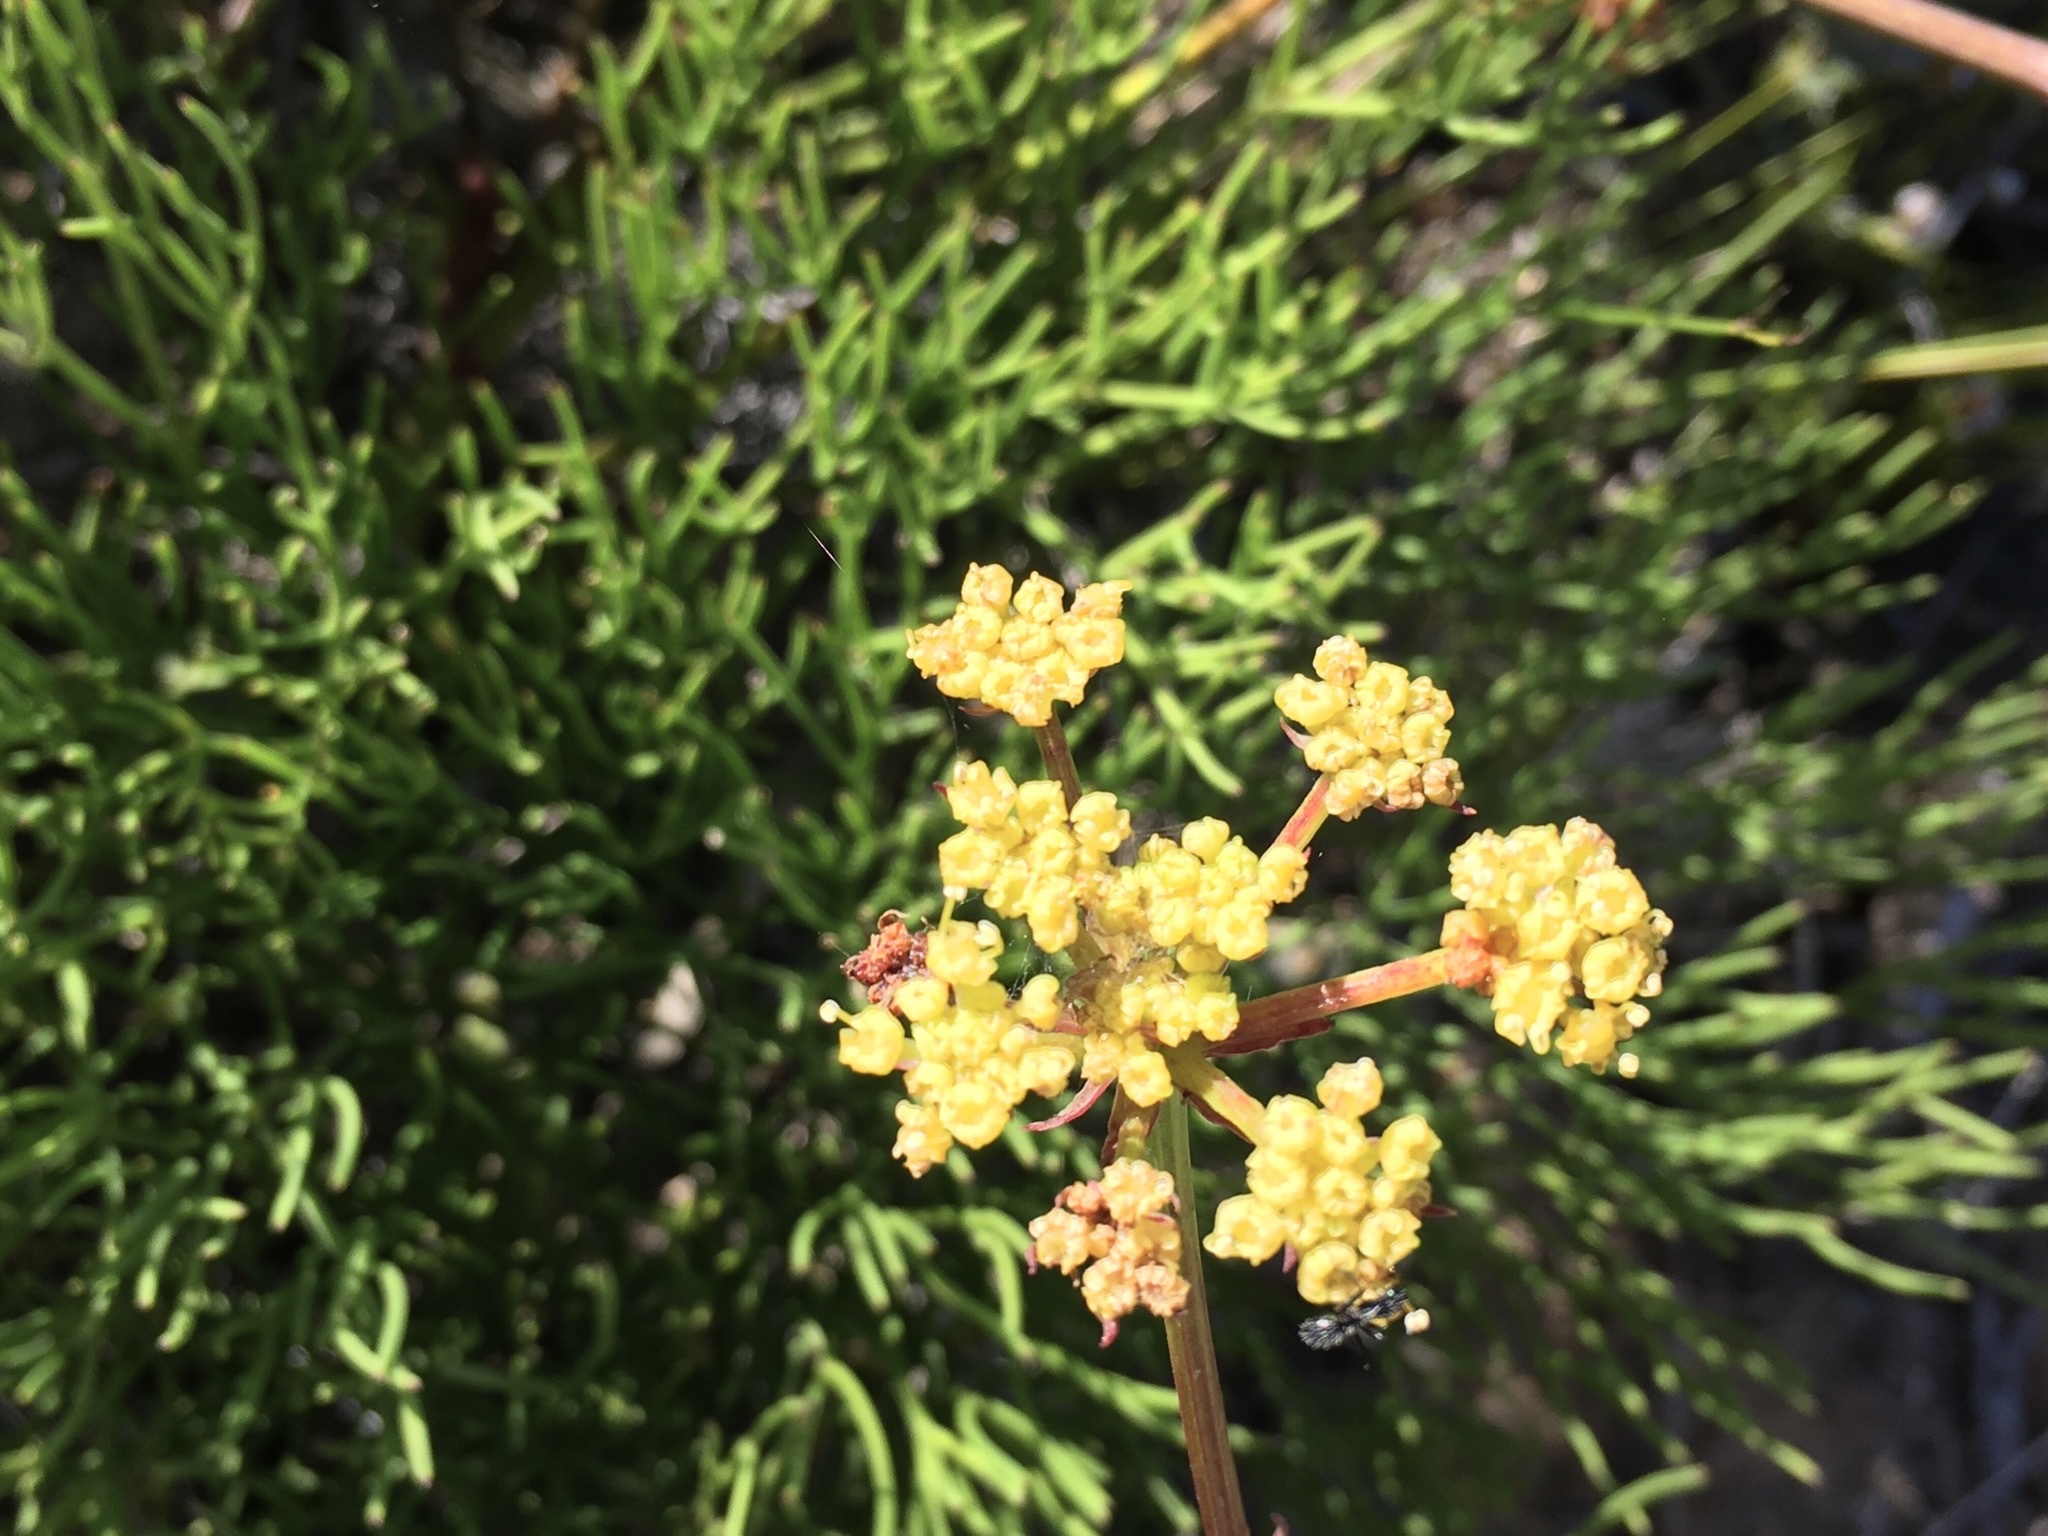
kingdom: Plantae
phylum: Tracheophyta
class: Magnoliopsida
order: Apiales
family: Apiaceae
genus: Nanobubon
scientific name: Nanobubon strictum
